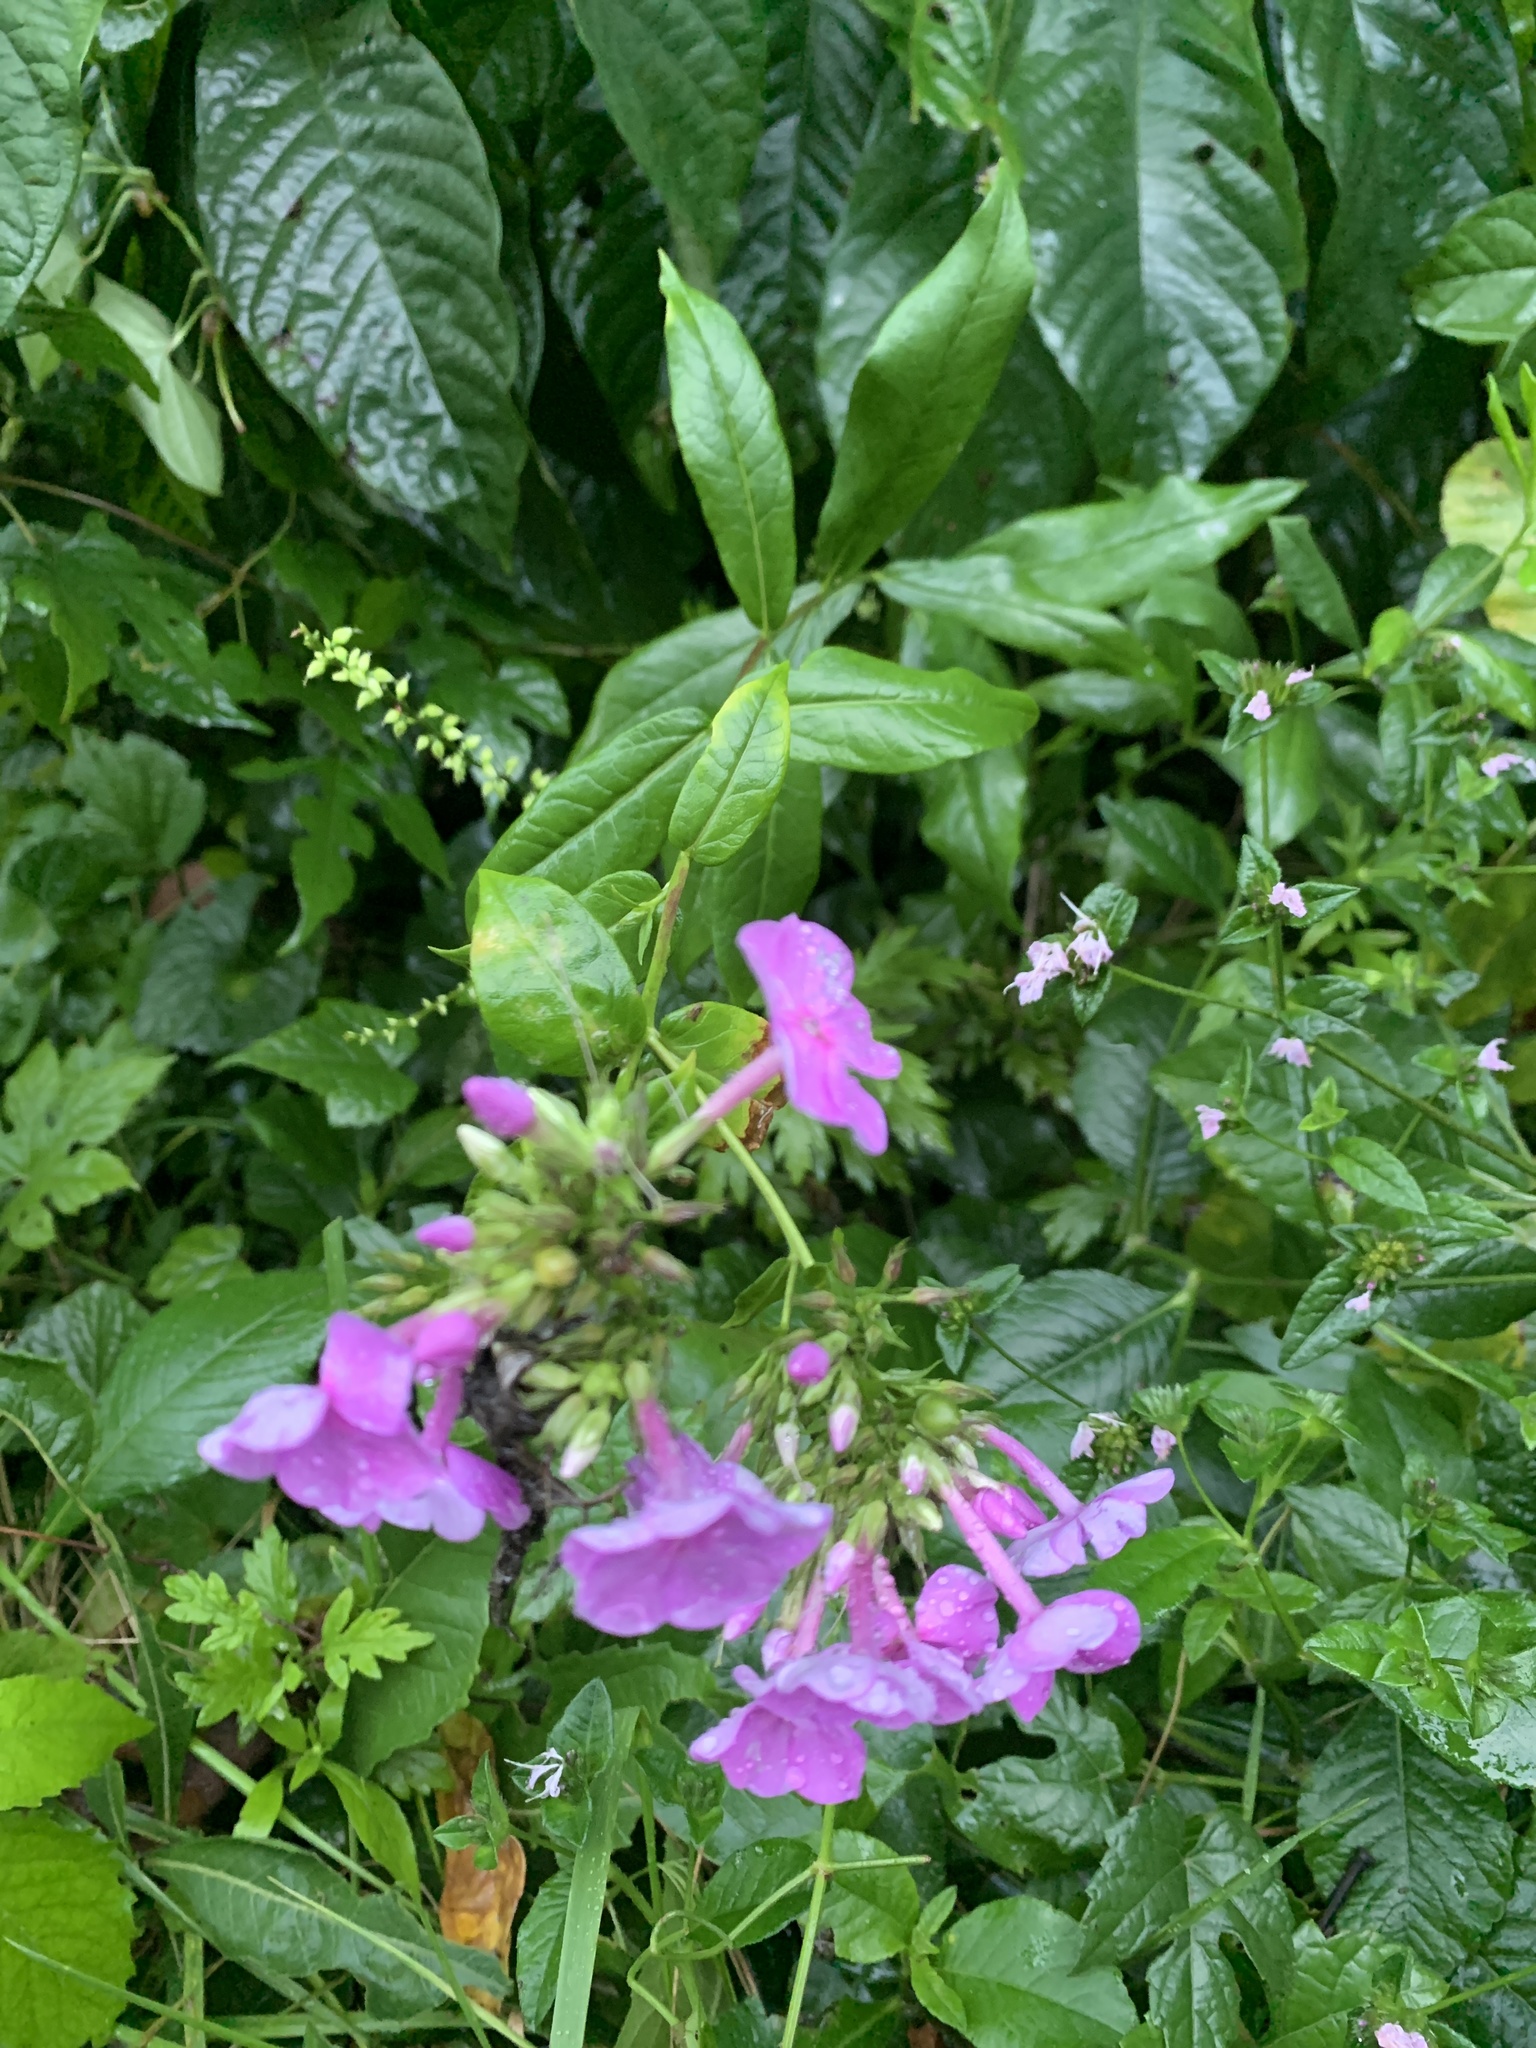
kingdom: Plantae
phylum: Tracheophyta
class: Magnoliopsida
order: Ericales
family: Polemoniaceae
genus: Phlox
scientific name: Phlox paniculata
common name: Fall phlox
